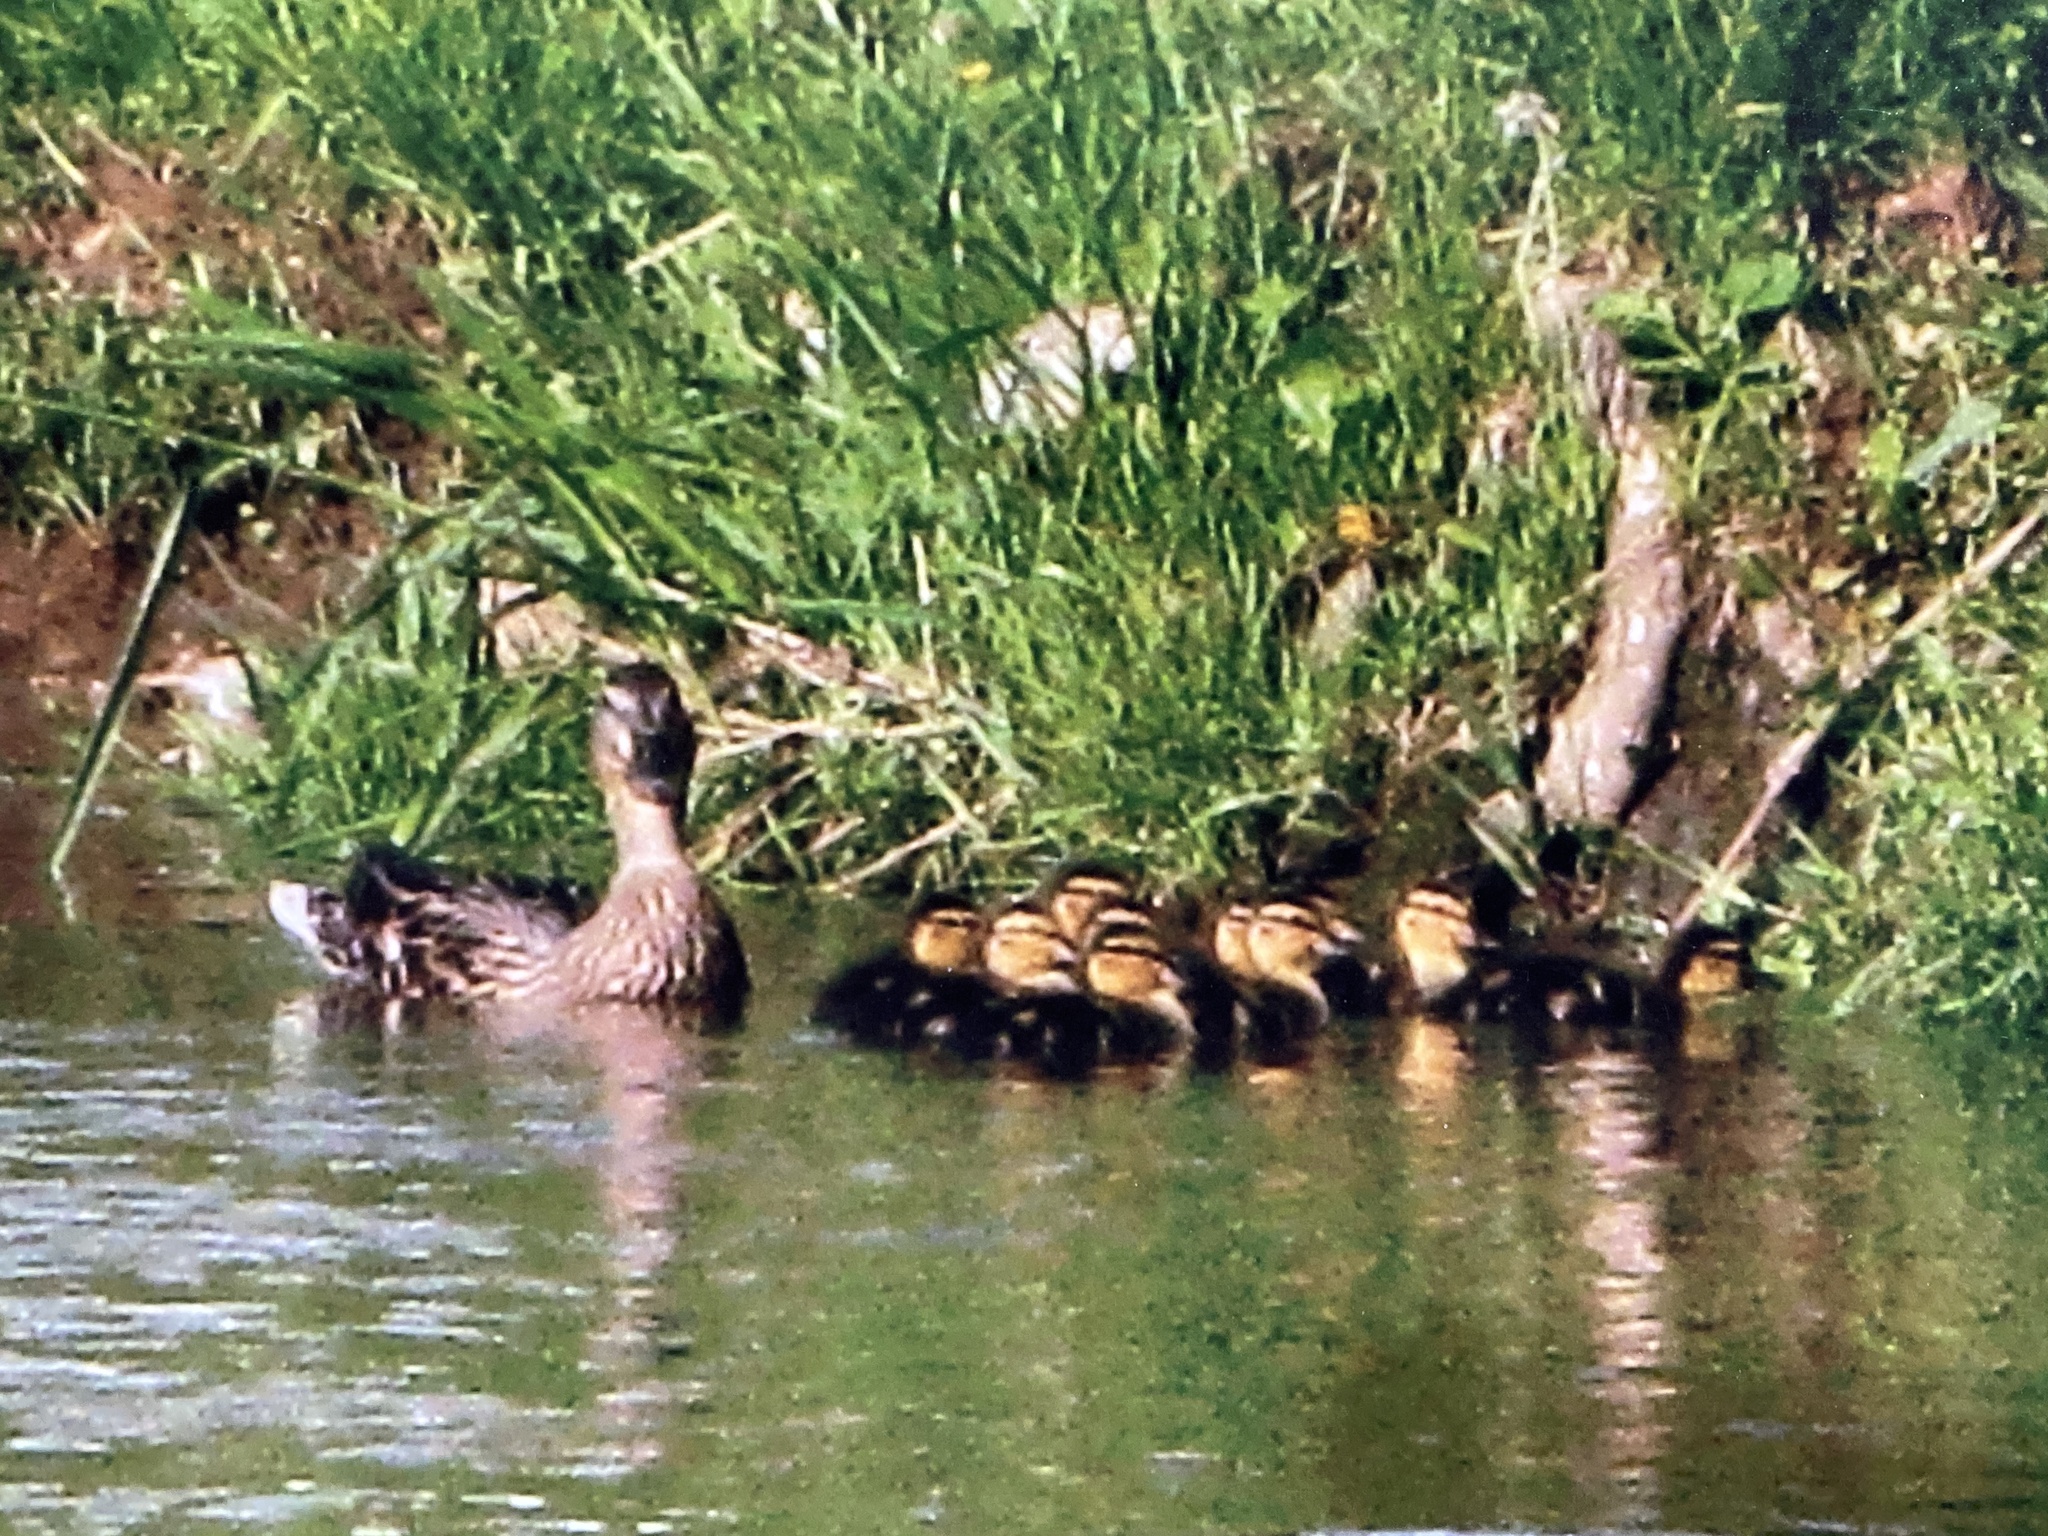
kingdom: Animalia
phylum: Chordata
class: Aves
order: Anseriformes
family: Anatidae
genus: Anas
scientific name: Anas platyrhynchos
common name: Mallard
